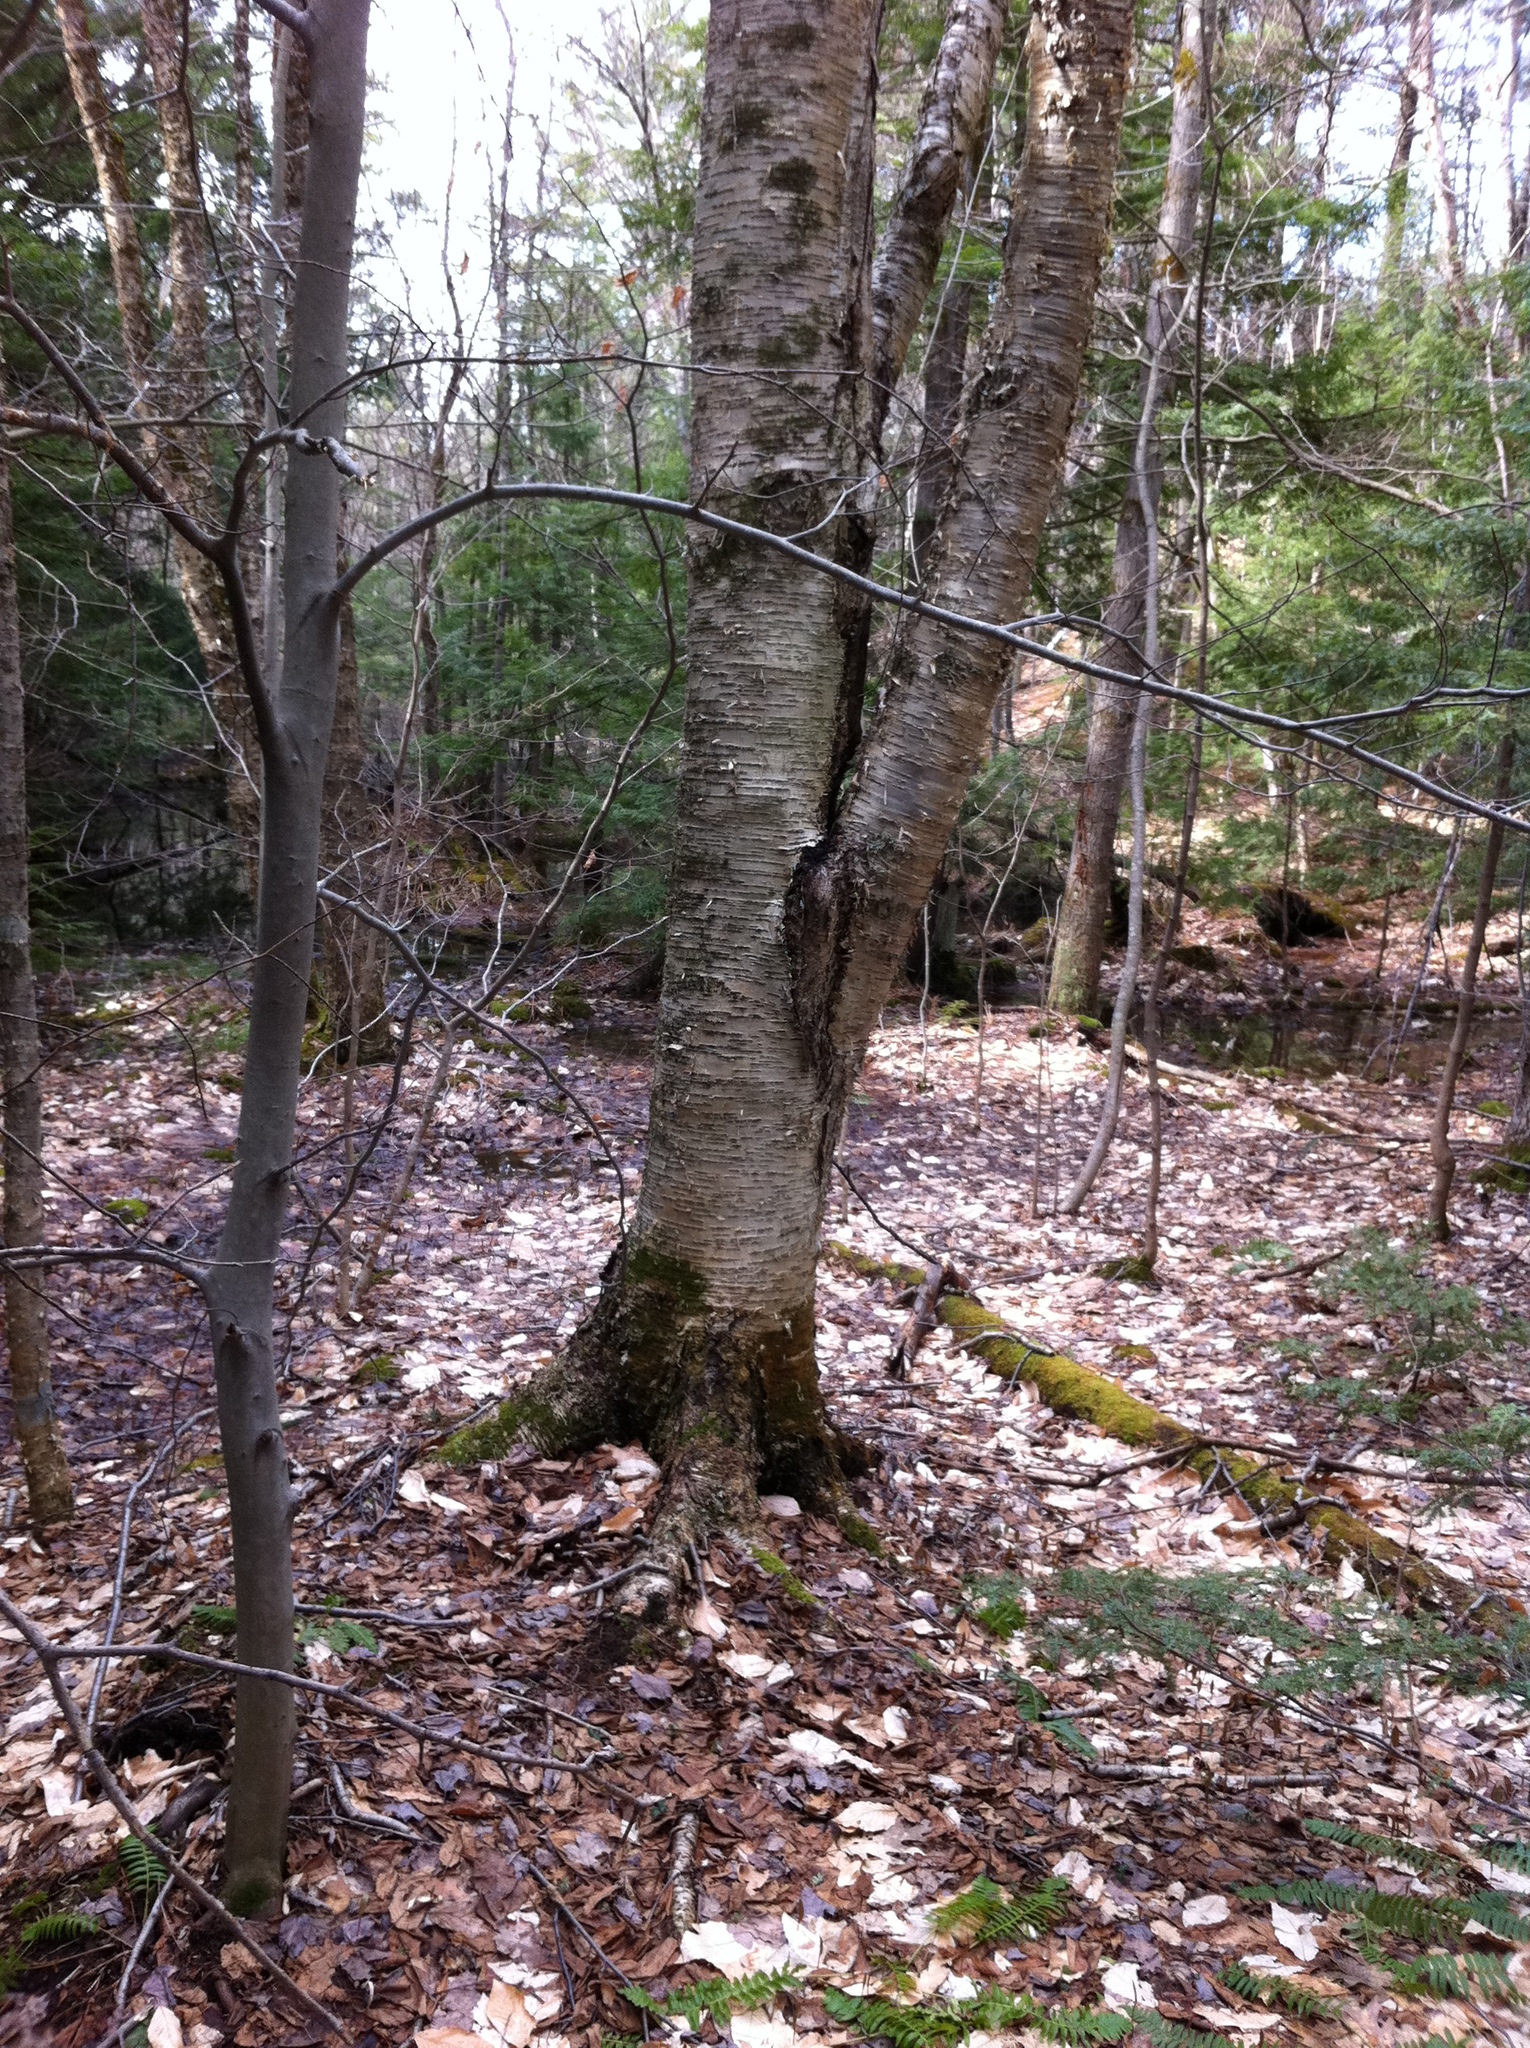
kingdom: Plantae
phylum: Tracheophyta
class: Magnoliopsida
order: Fagales
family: Betulaceae
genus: Betula
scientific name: Betula alleghaniensis
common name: Yellow birch
